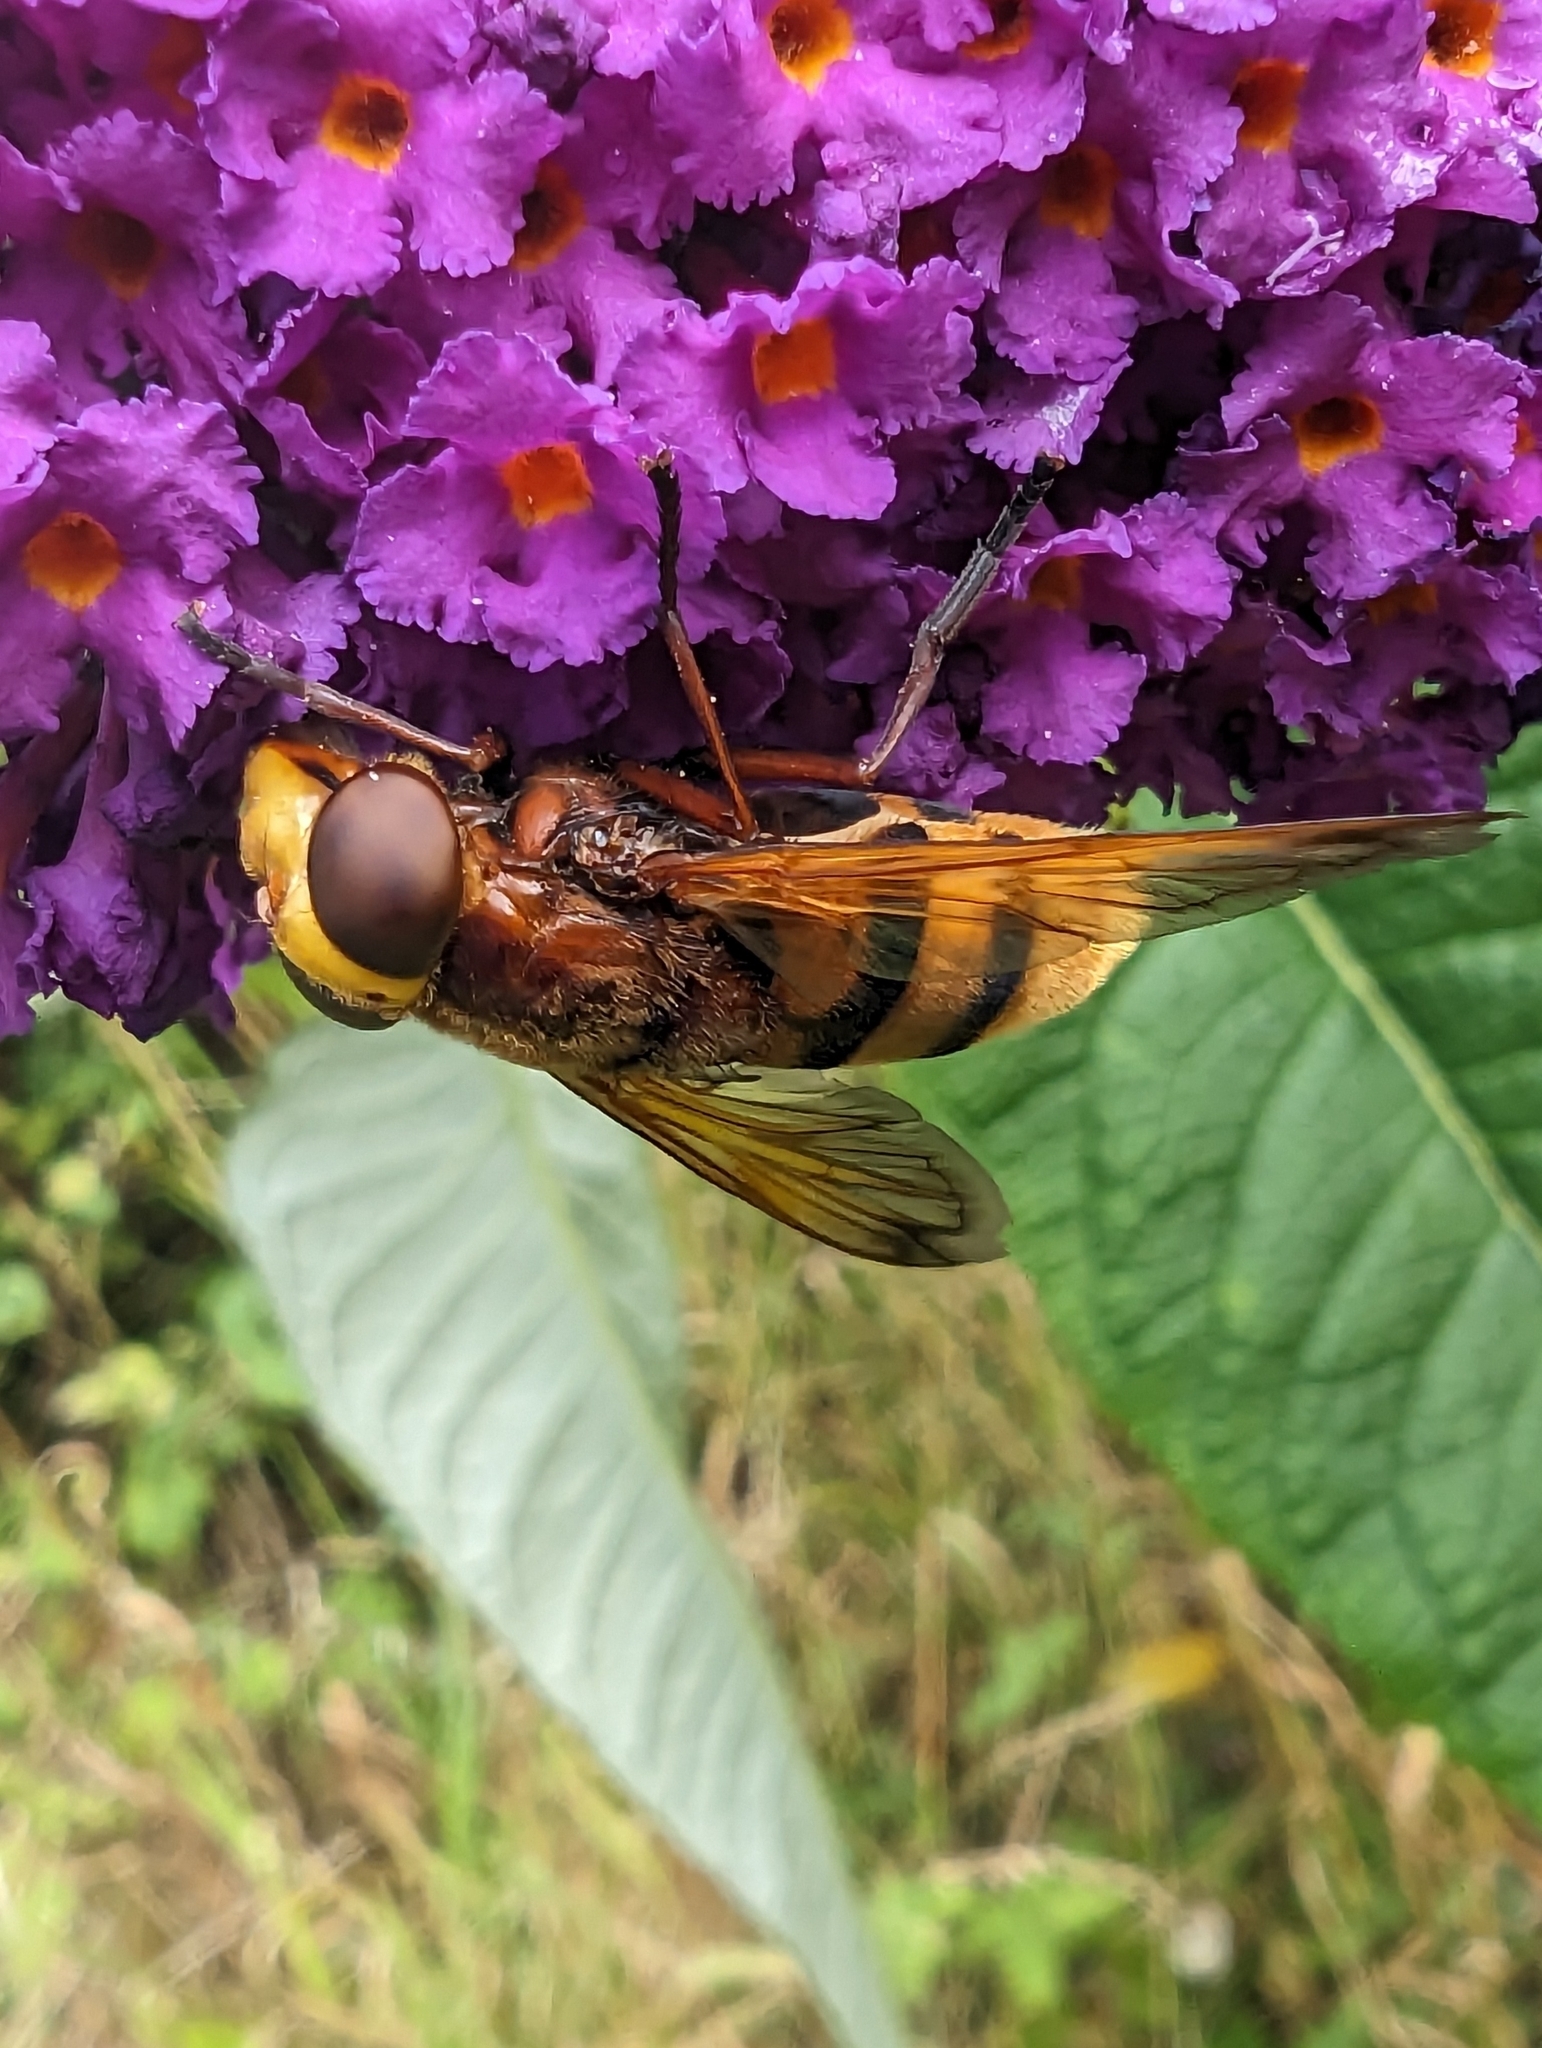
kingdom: Animalia
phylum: Arthropoda
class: Insecta
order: Diptera
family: Syrphidae
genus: Volucella
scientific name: Volucella zonaria
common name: Hornet hoverfly
